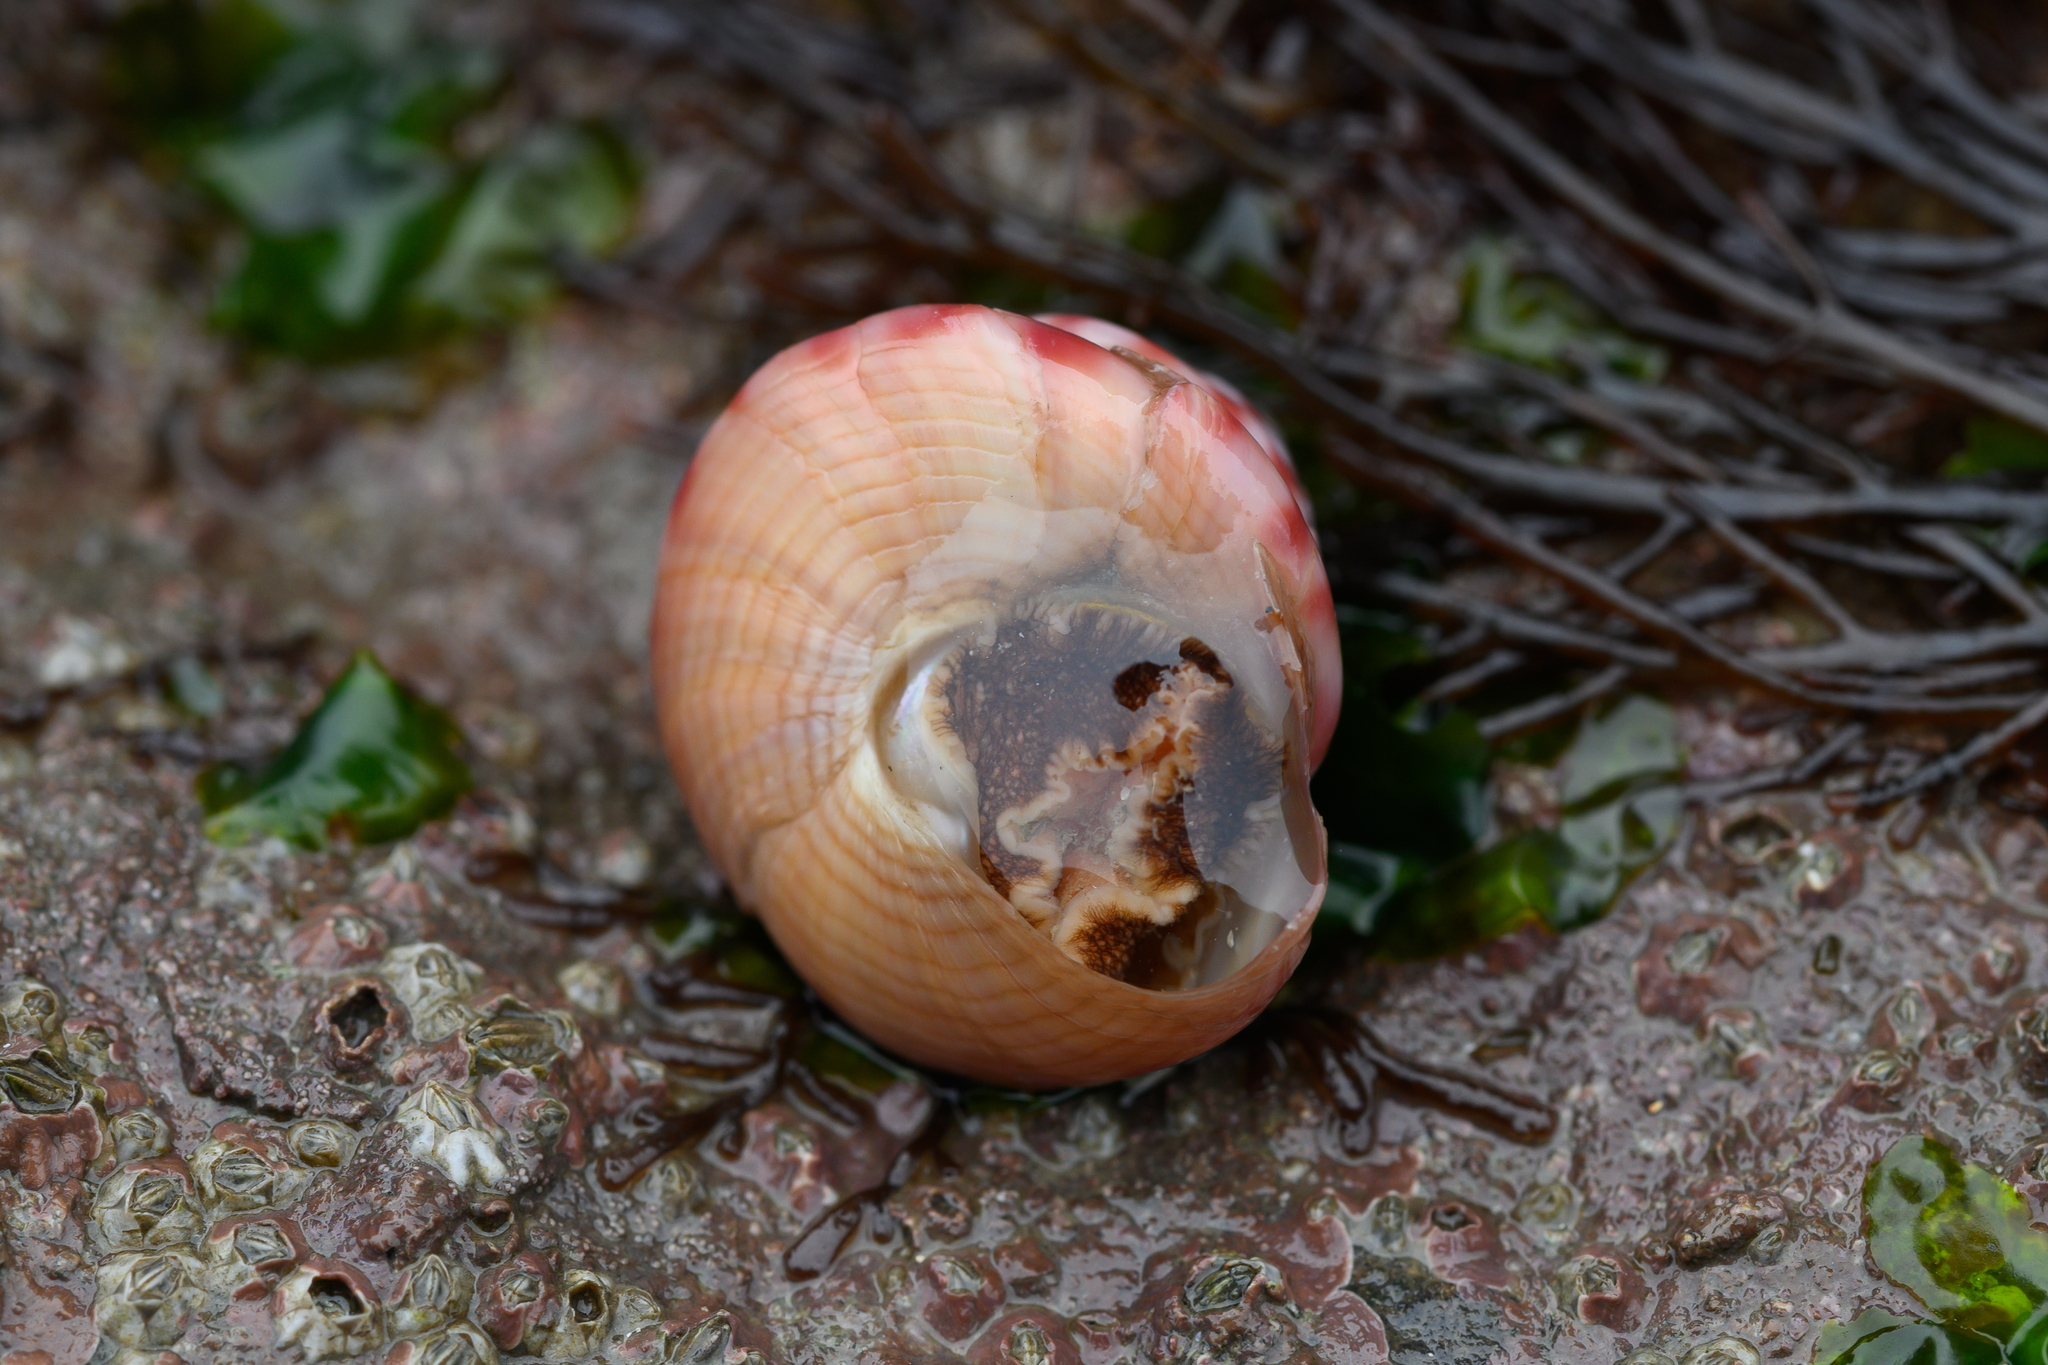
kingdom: Animalia
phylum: Mollusca
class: Gastropoda
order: Trochida
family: Calliostomatidae
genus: Calliostoma
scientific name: Calliostoma zizyphinum
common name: Painted top shell
